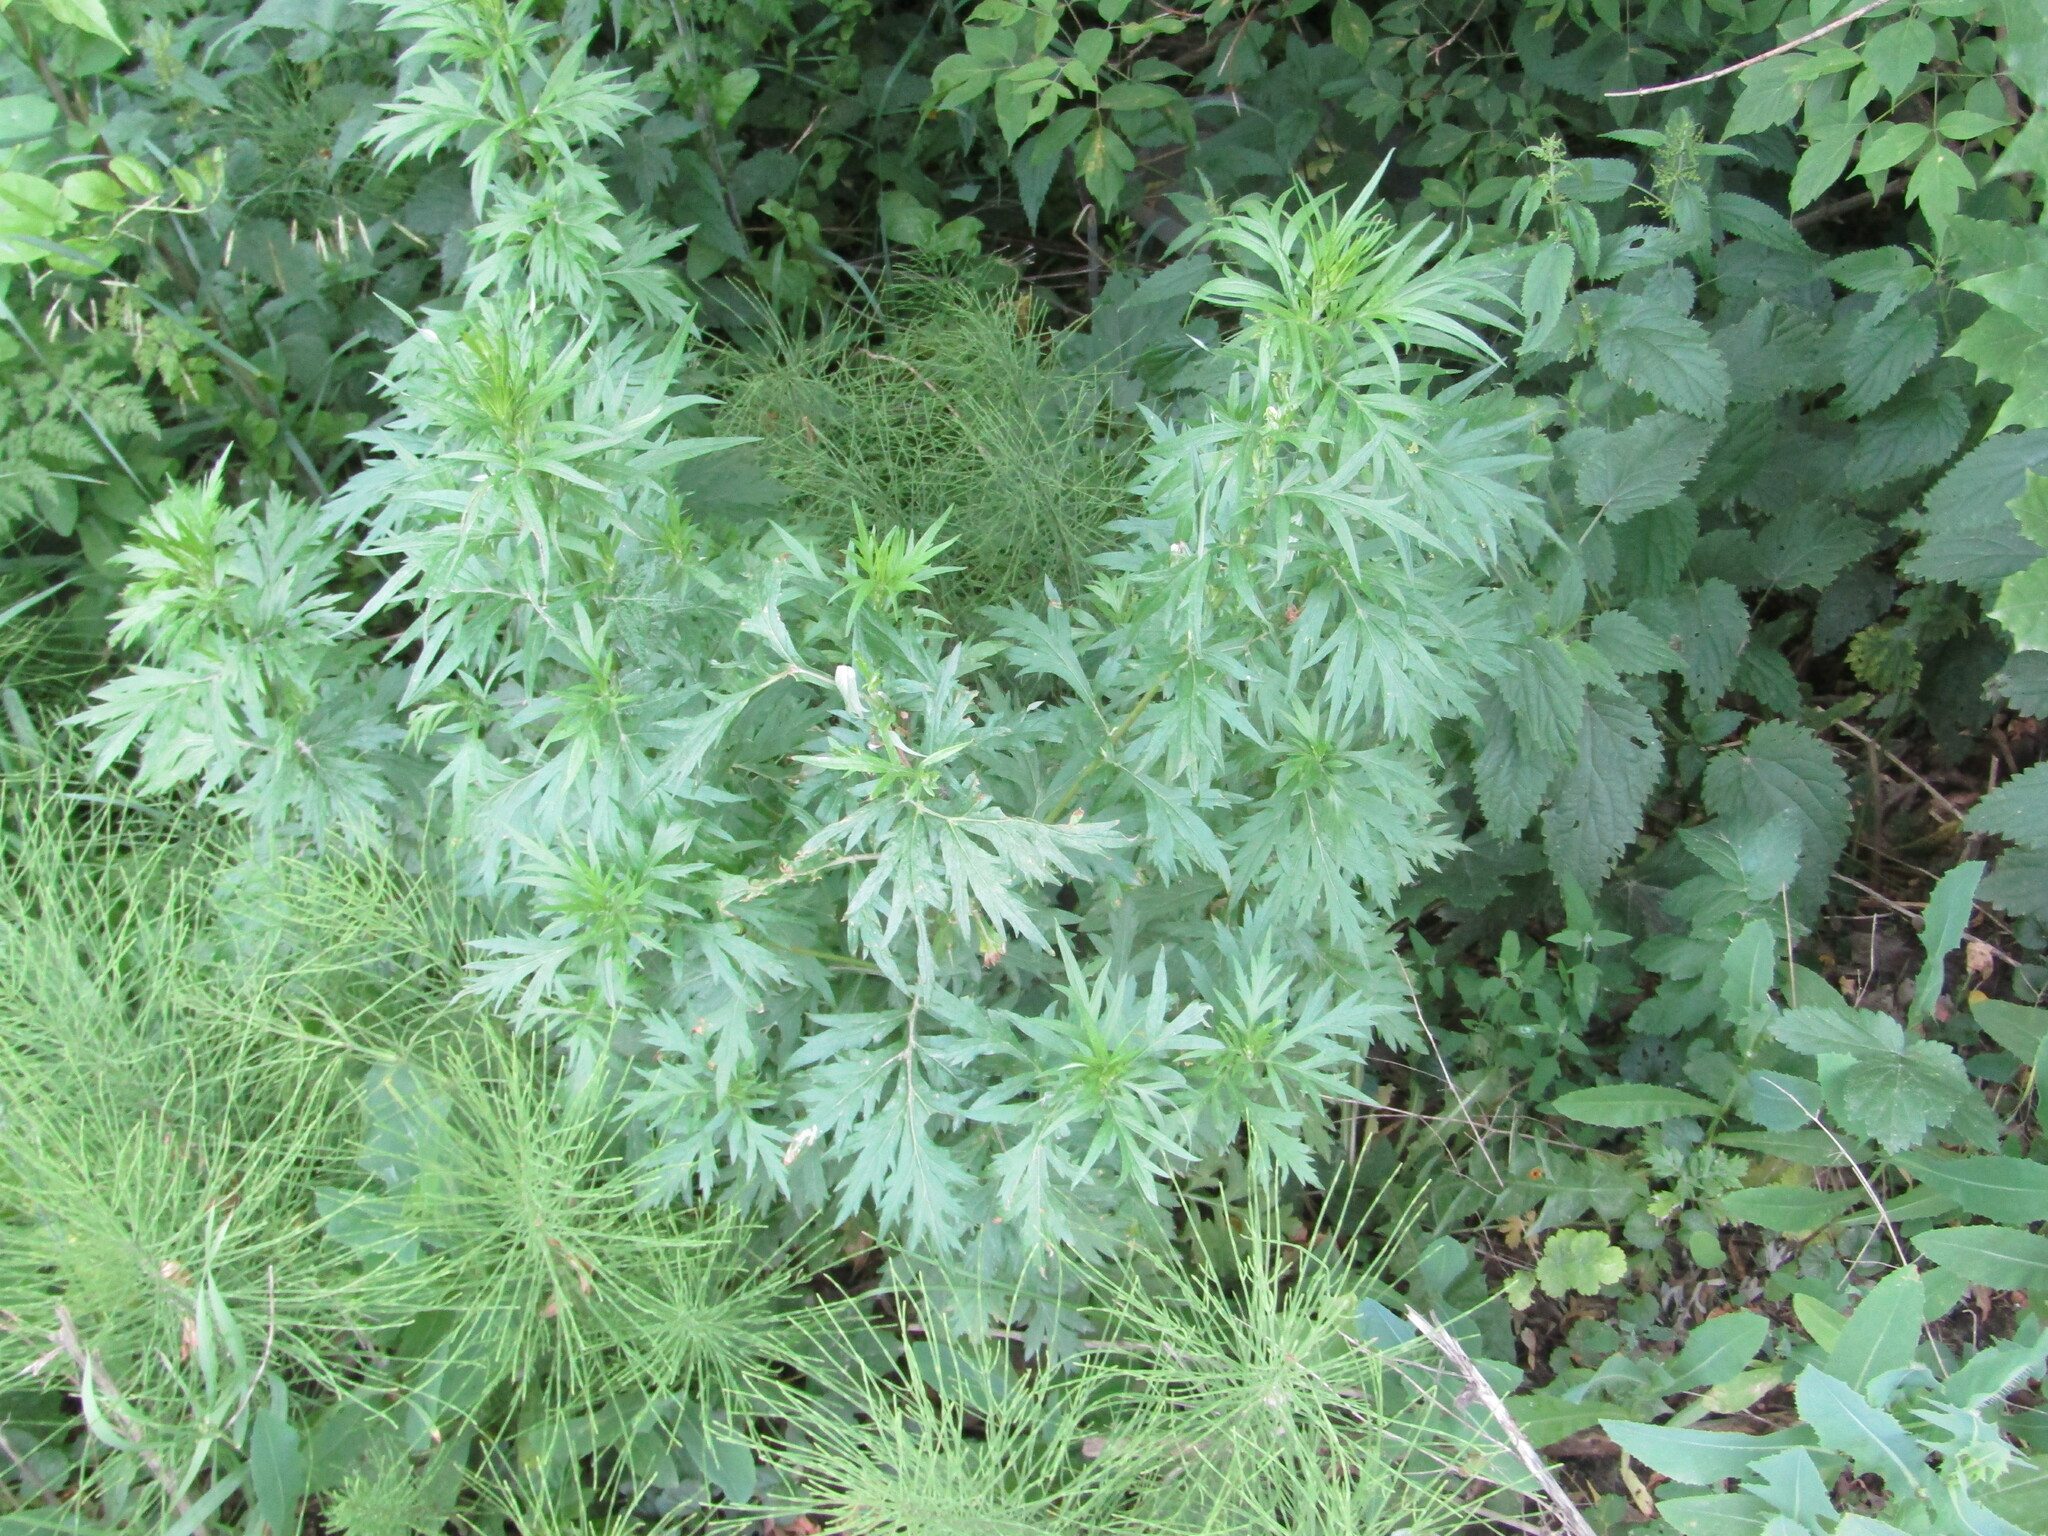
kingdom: Plantae
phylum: Tracheophyta
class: Magnoliopsida
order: Asterales
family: Asteraceae
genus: Artemisia
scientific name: Artemisia vulgaris
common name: Mugwort
